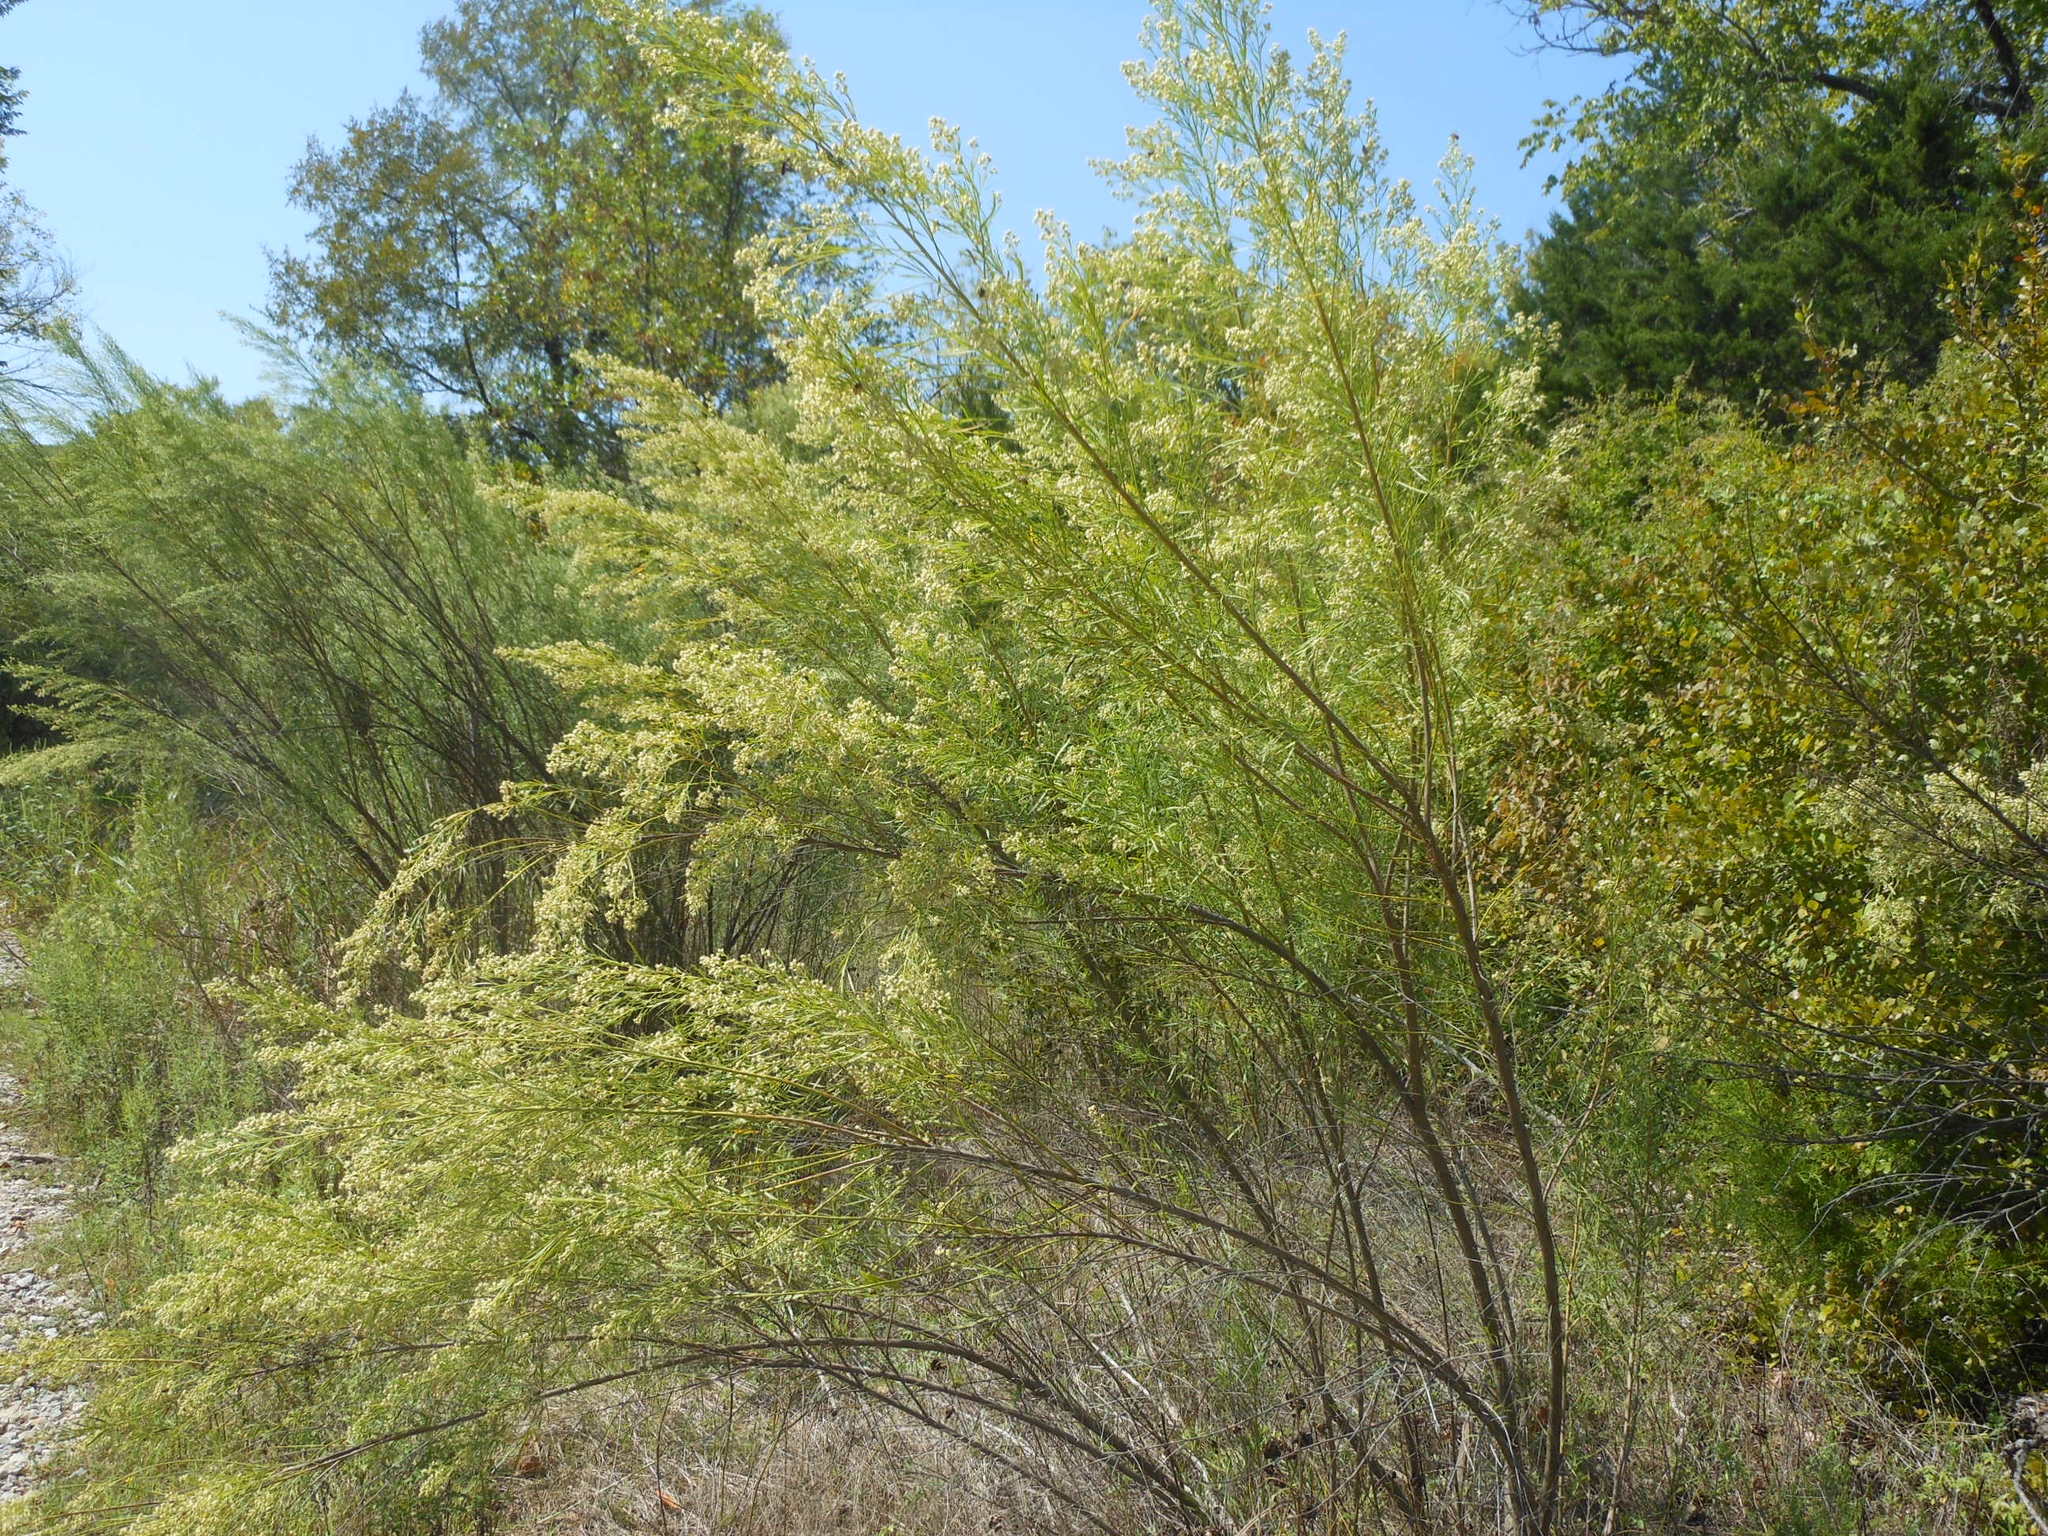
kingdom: Plantae
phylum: Tracheophyta
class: Magnoliopsida
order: Asterales
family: Asteraceae
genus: Baccharis
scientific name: Baccharis neglecta
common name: Roosevelt-weed
